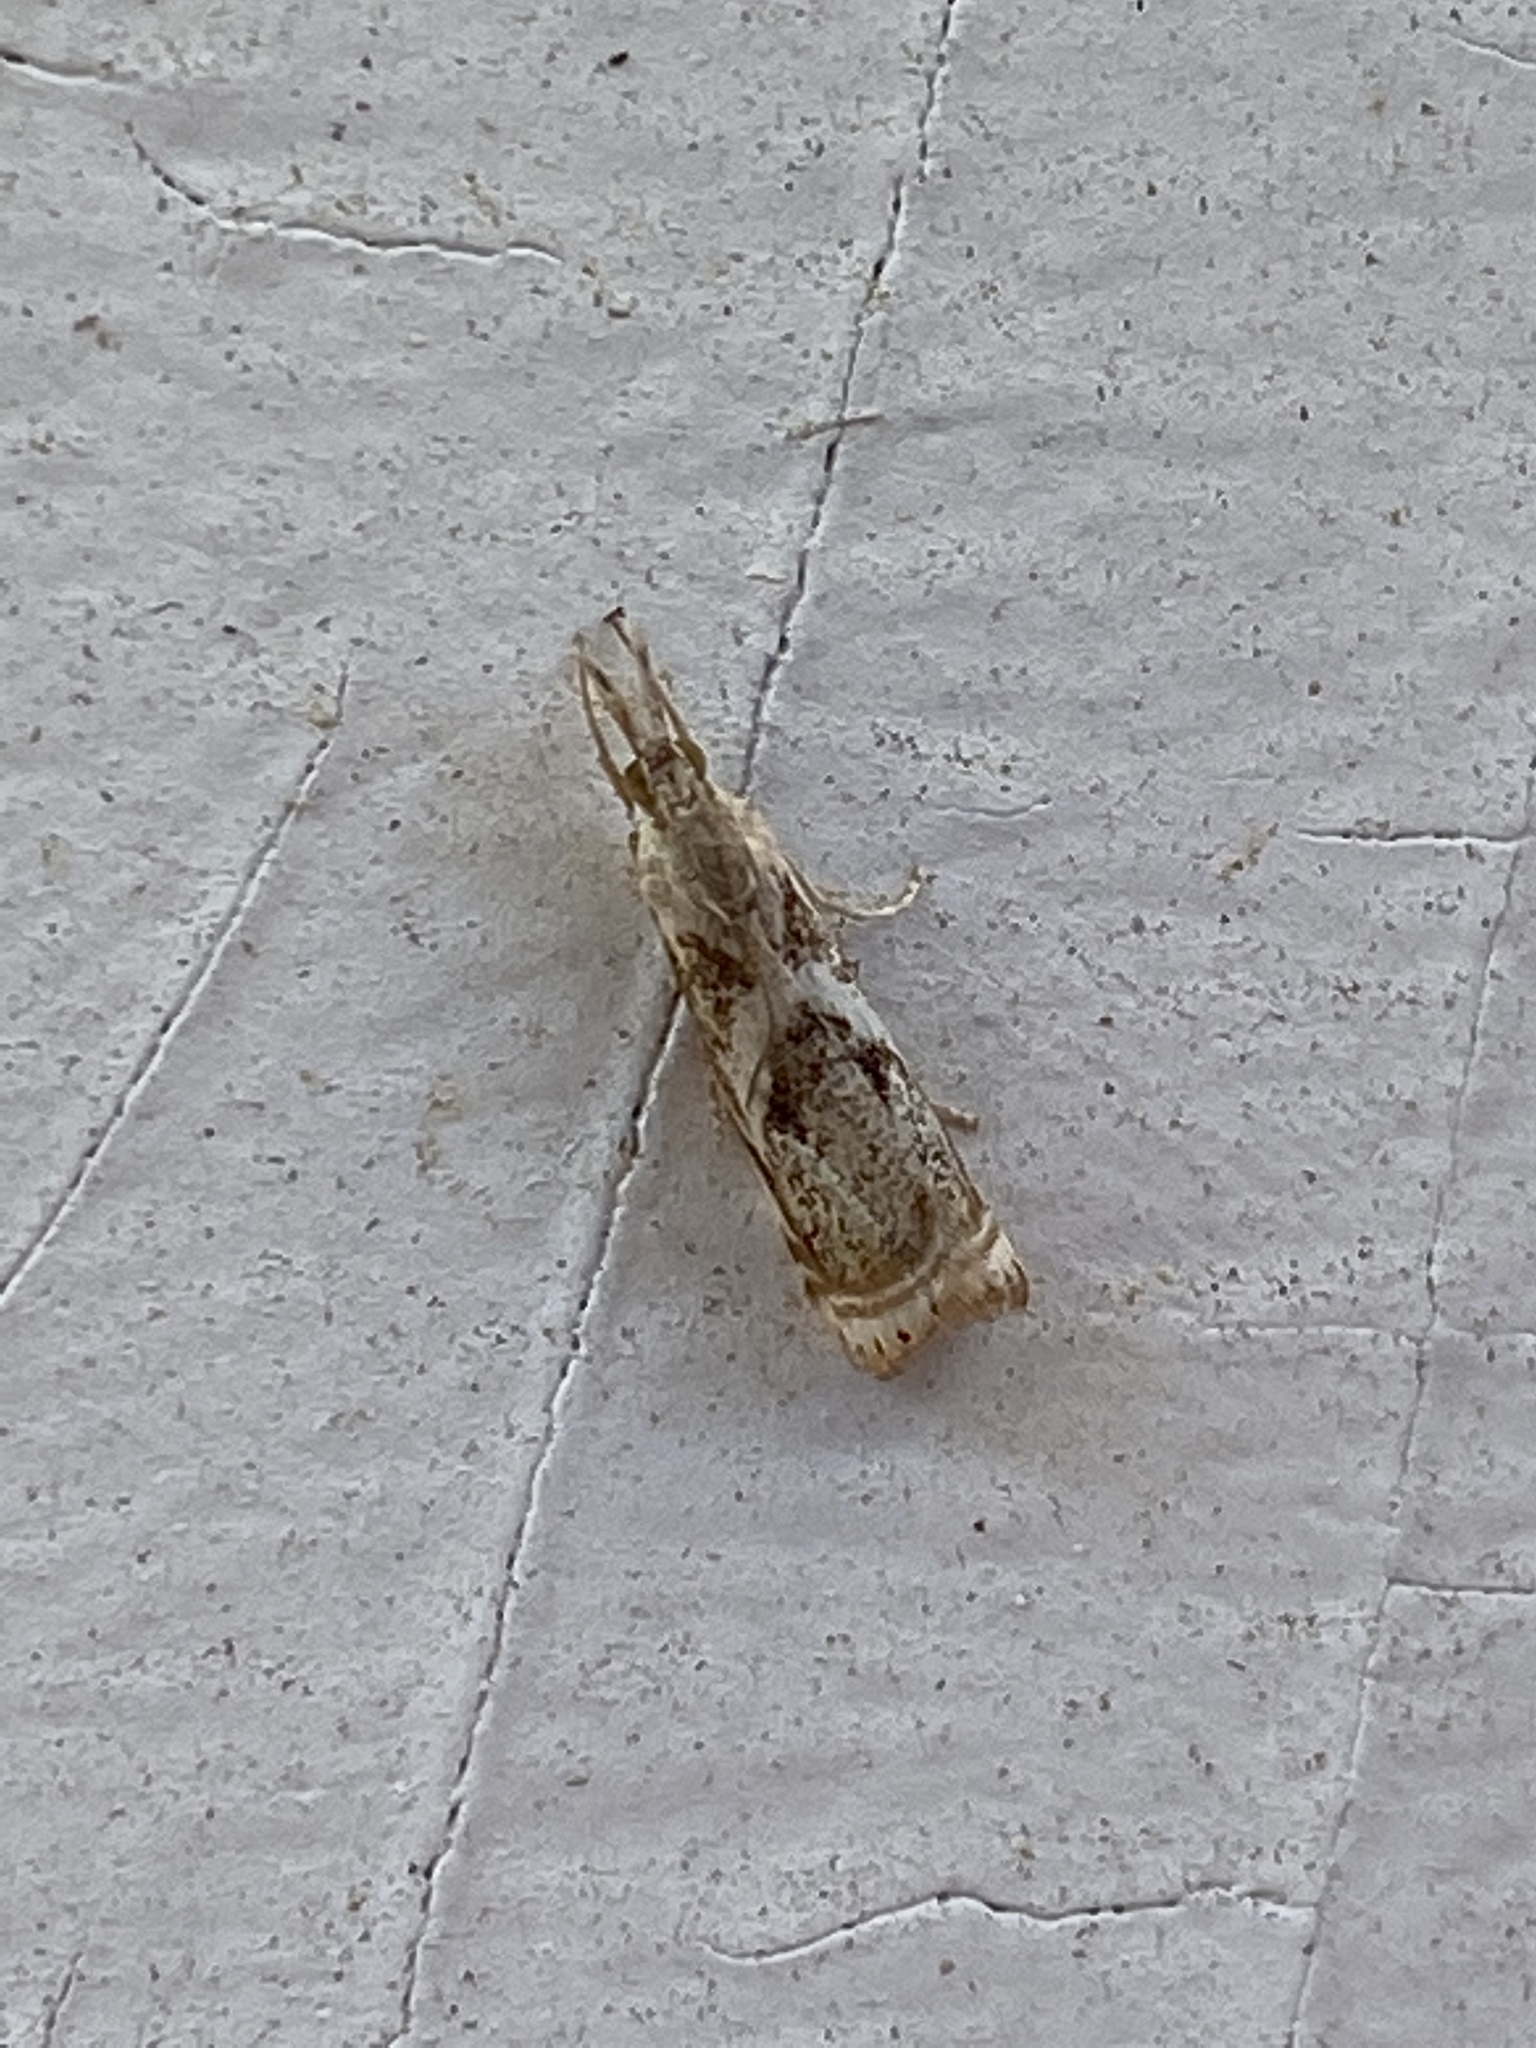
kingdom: Animalia
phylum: Arthropoda
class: Insecta
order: Lepidoptera
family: Crambidae
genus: Microcrambus
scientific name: Microcrambus elegans
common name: Elegant grass-veneer
